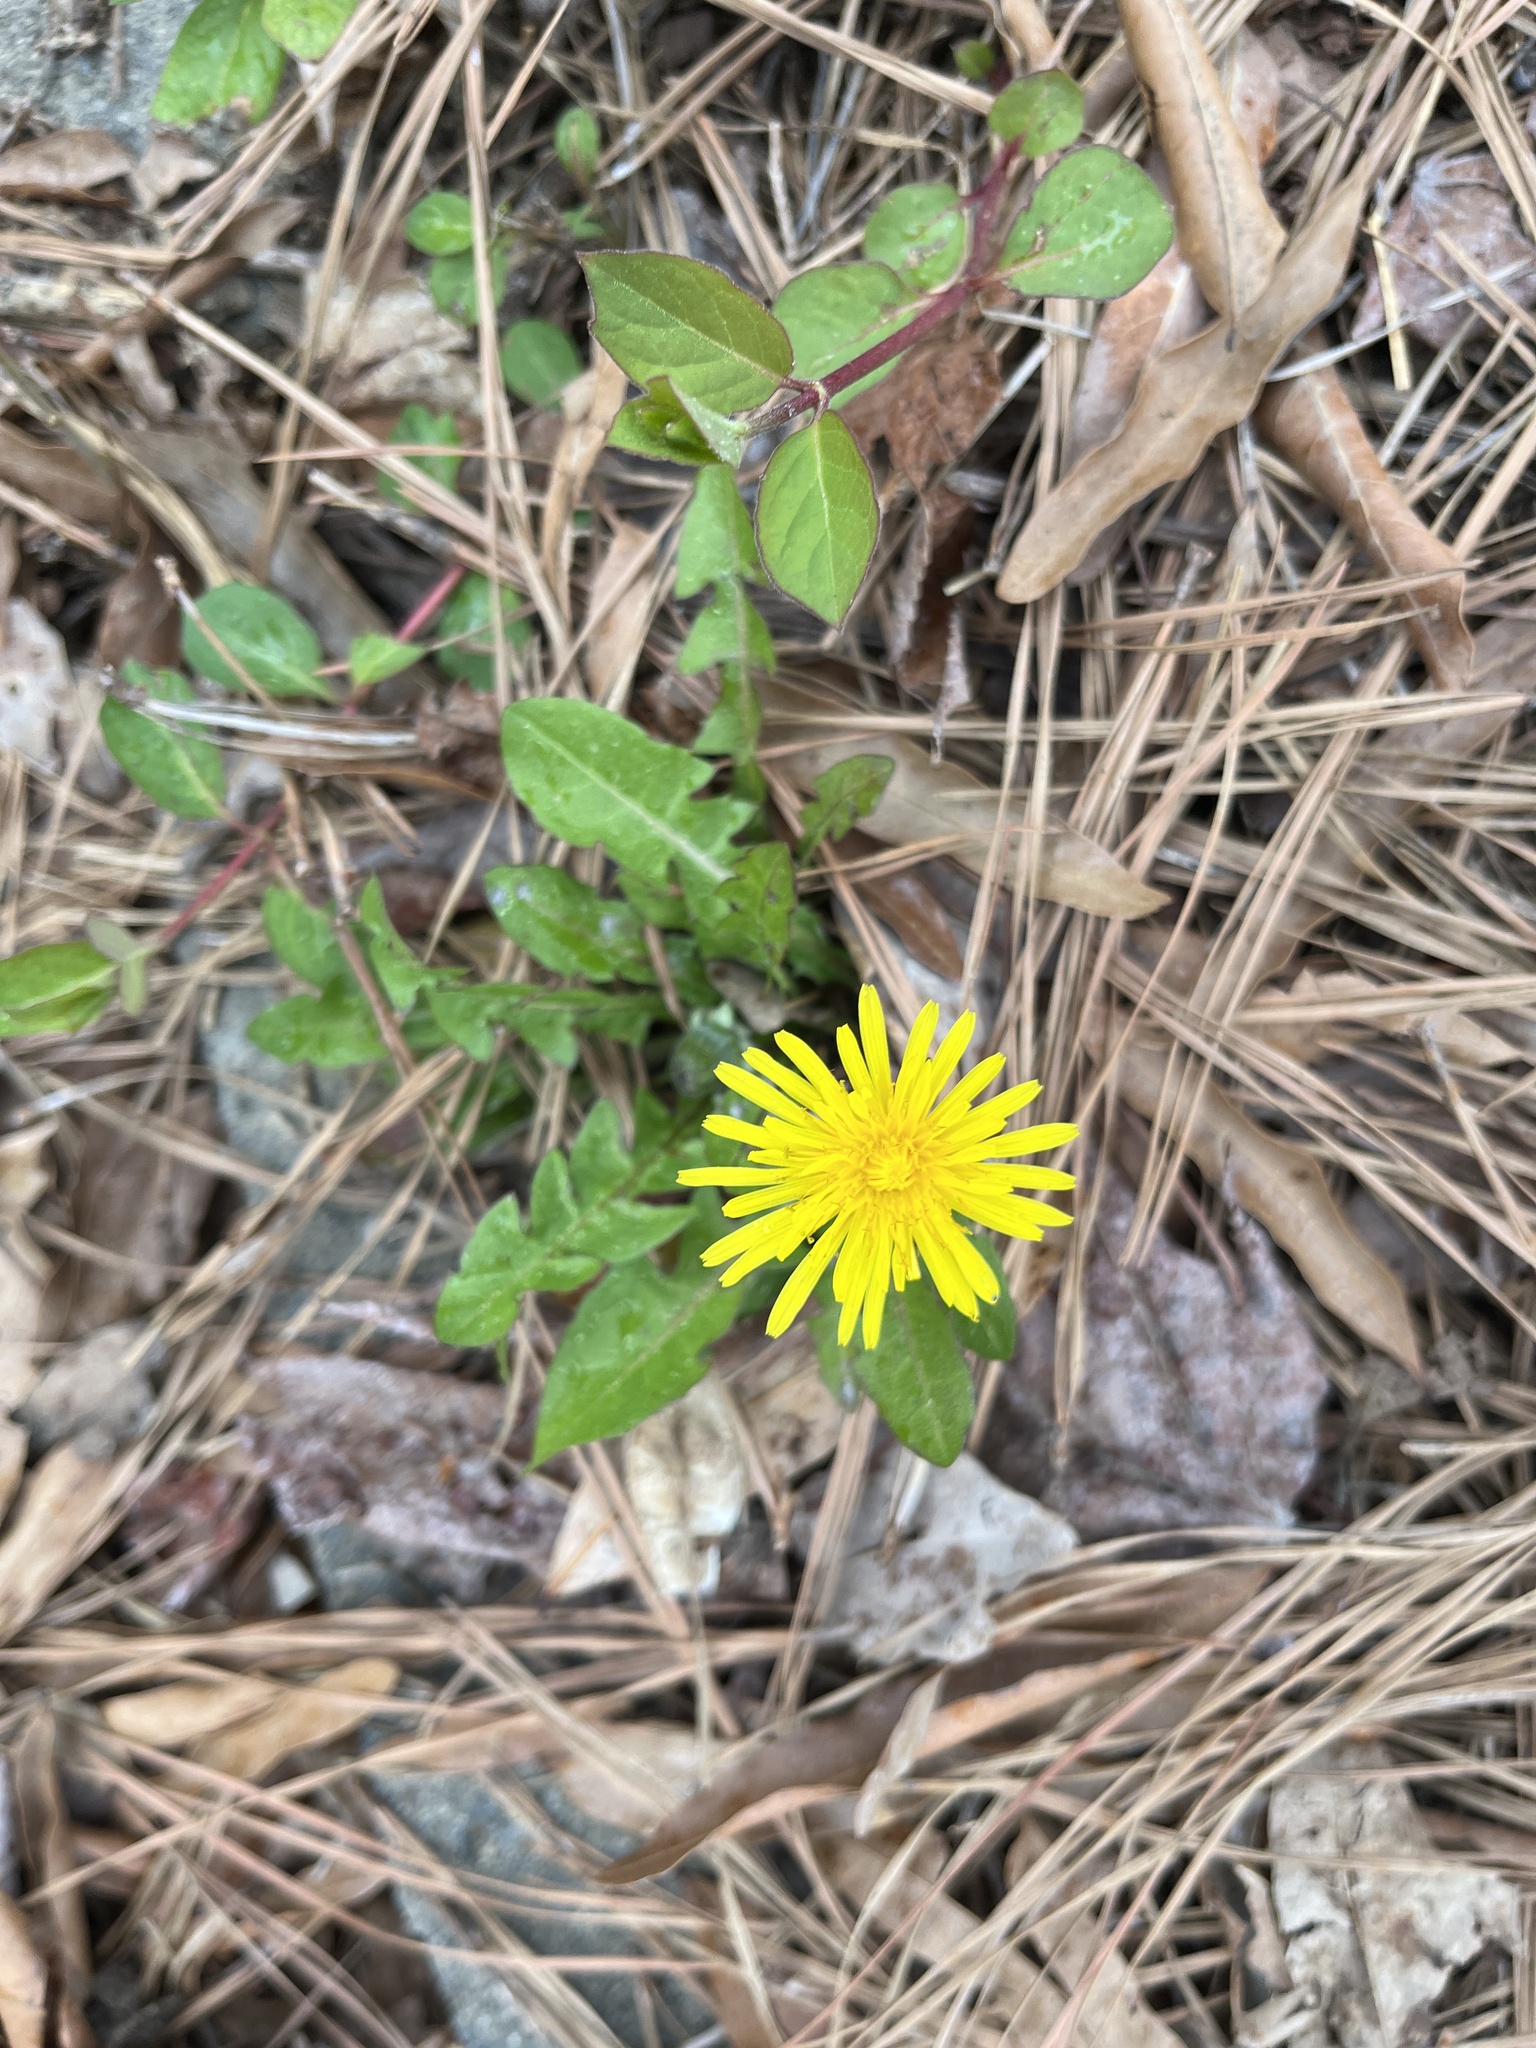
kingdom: Plantae
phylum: Tracheophyta
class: Magnoliopsida
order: Asterales
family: Asteraceae
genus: Taraxacum
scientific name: Taraxacum
